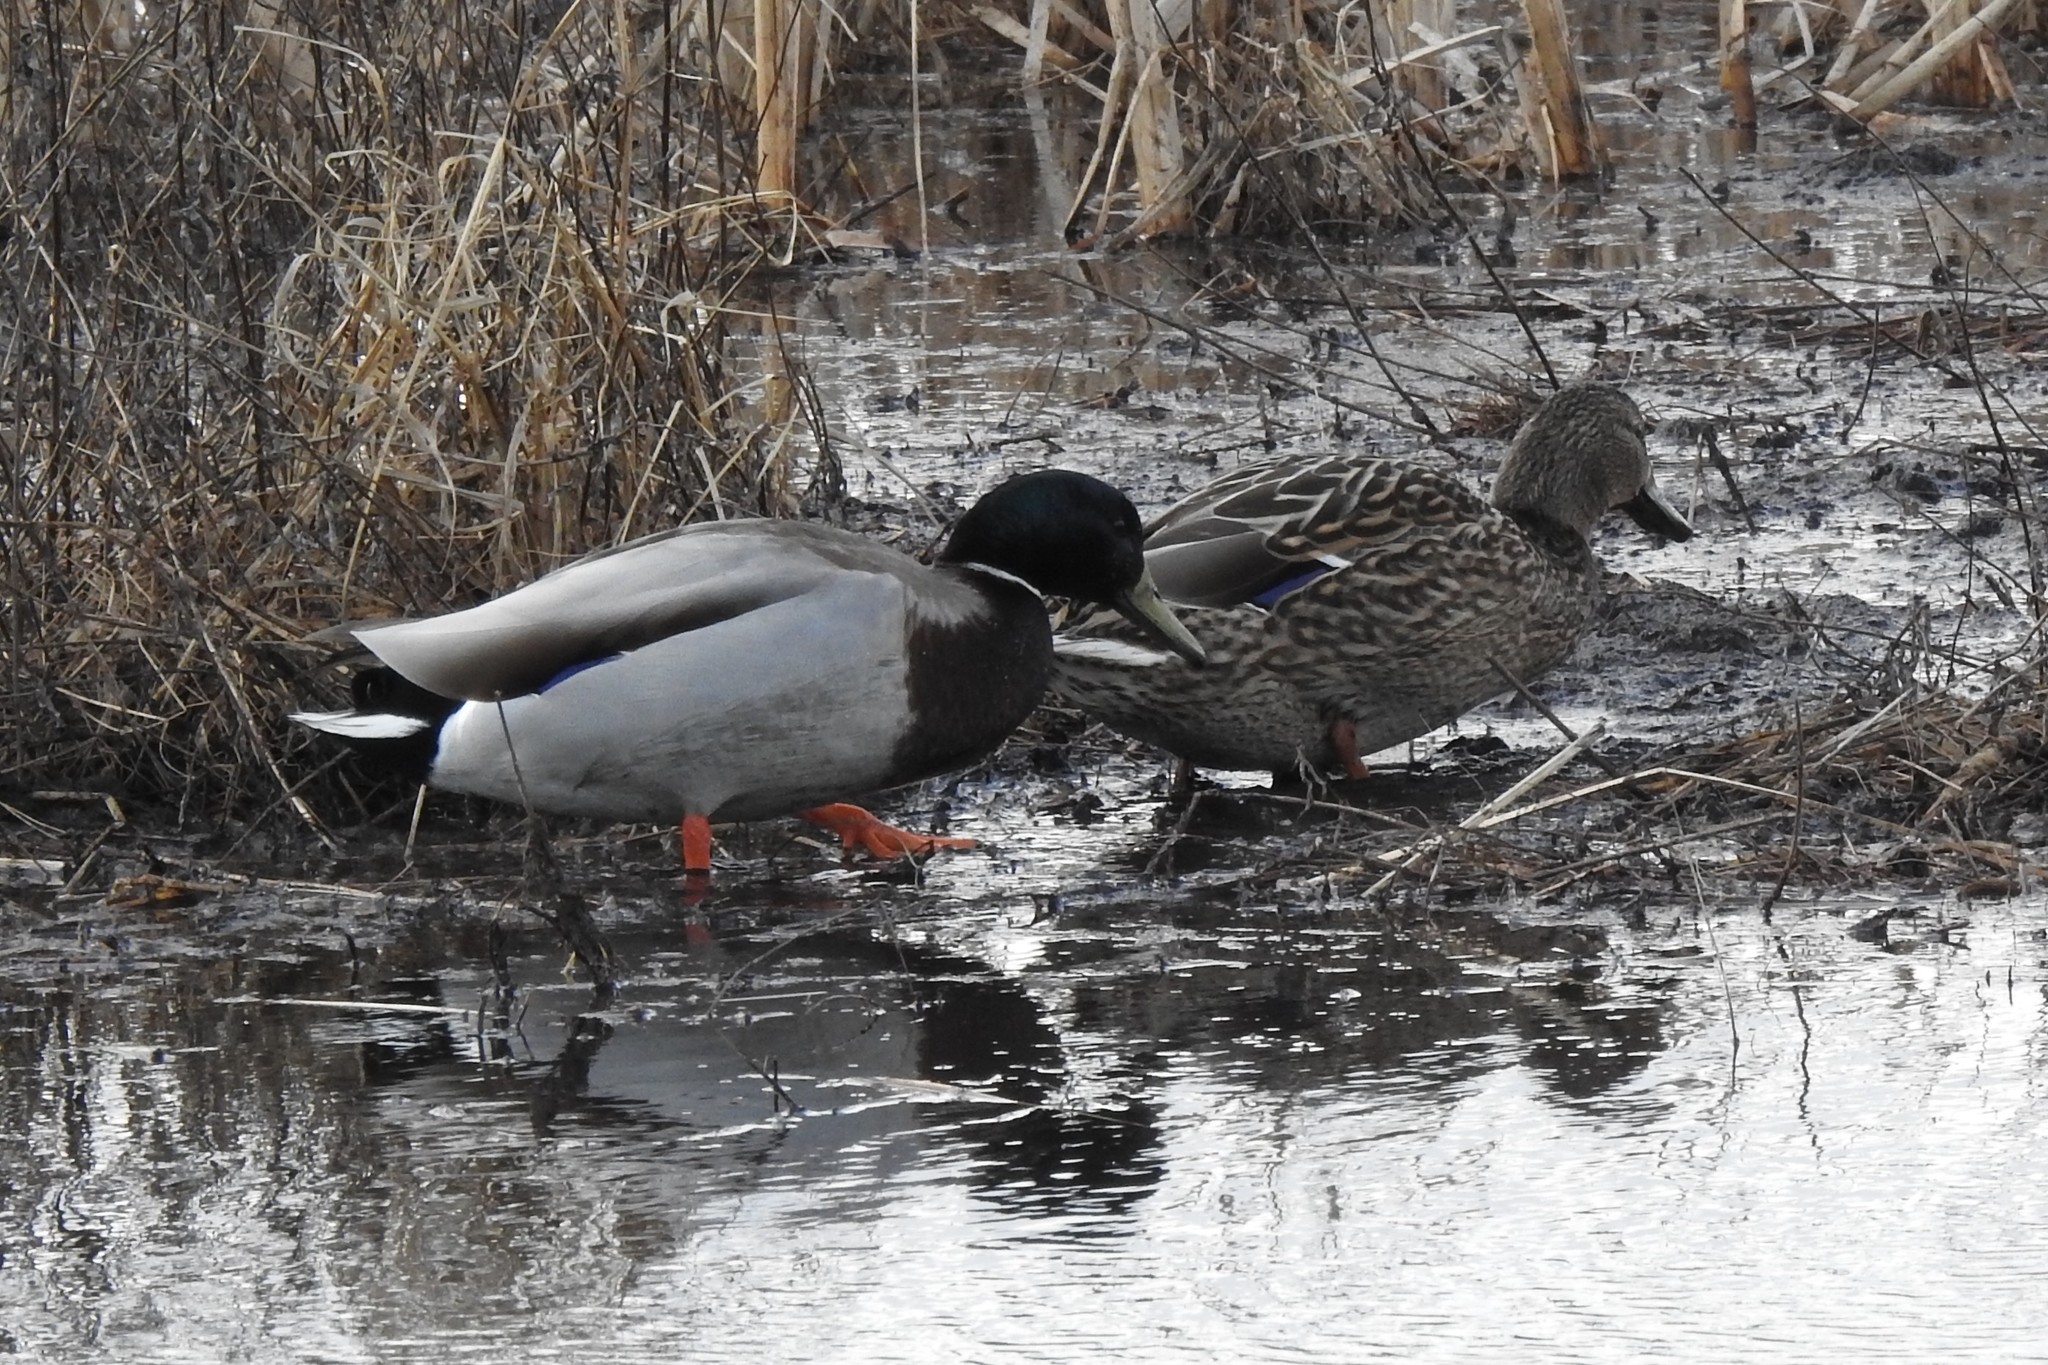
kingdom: Animalia
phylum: Chordata
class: Aves
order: Anseriformes
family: Anatidae
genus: Anas
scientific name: Anas platyrhynchos
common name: Mallard
